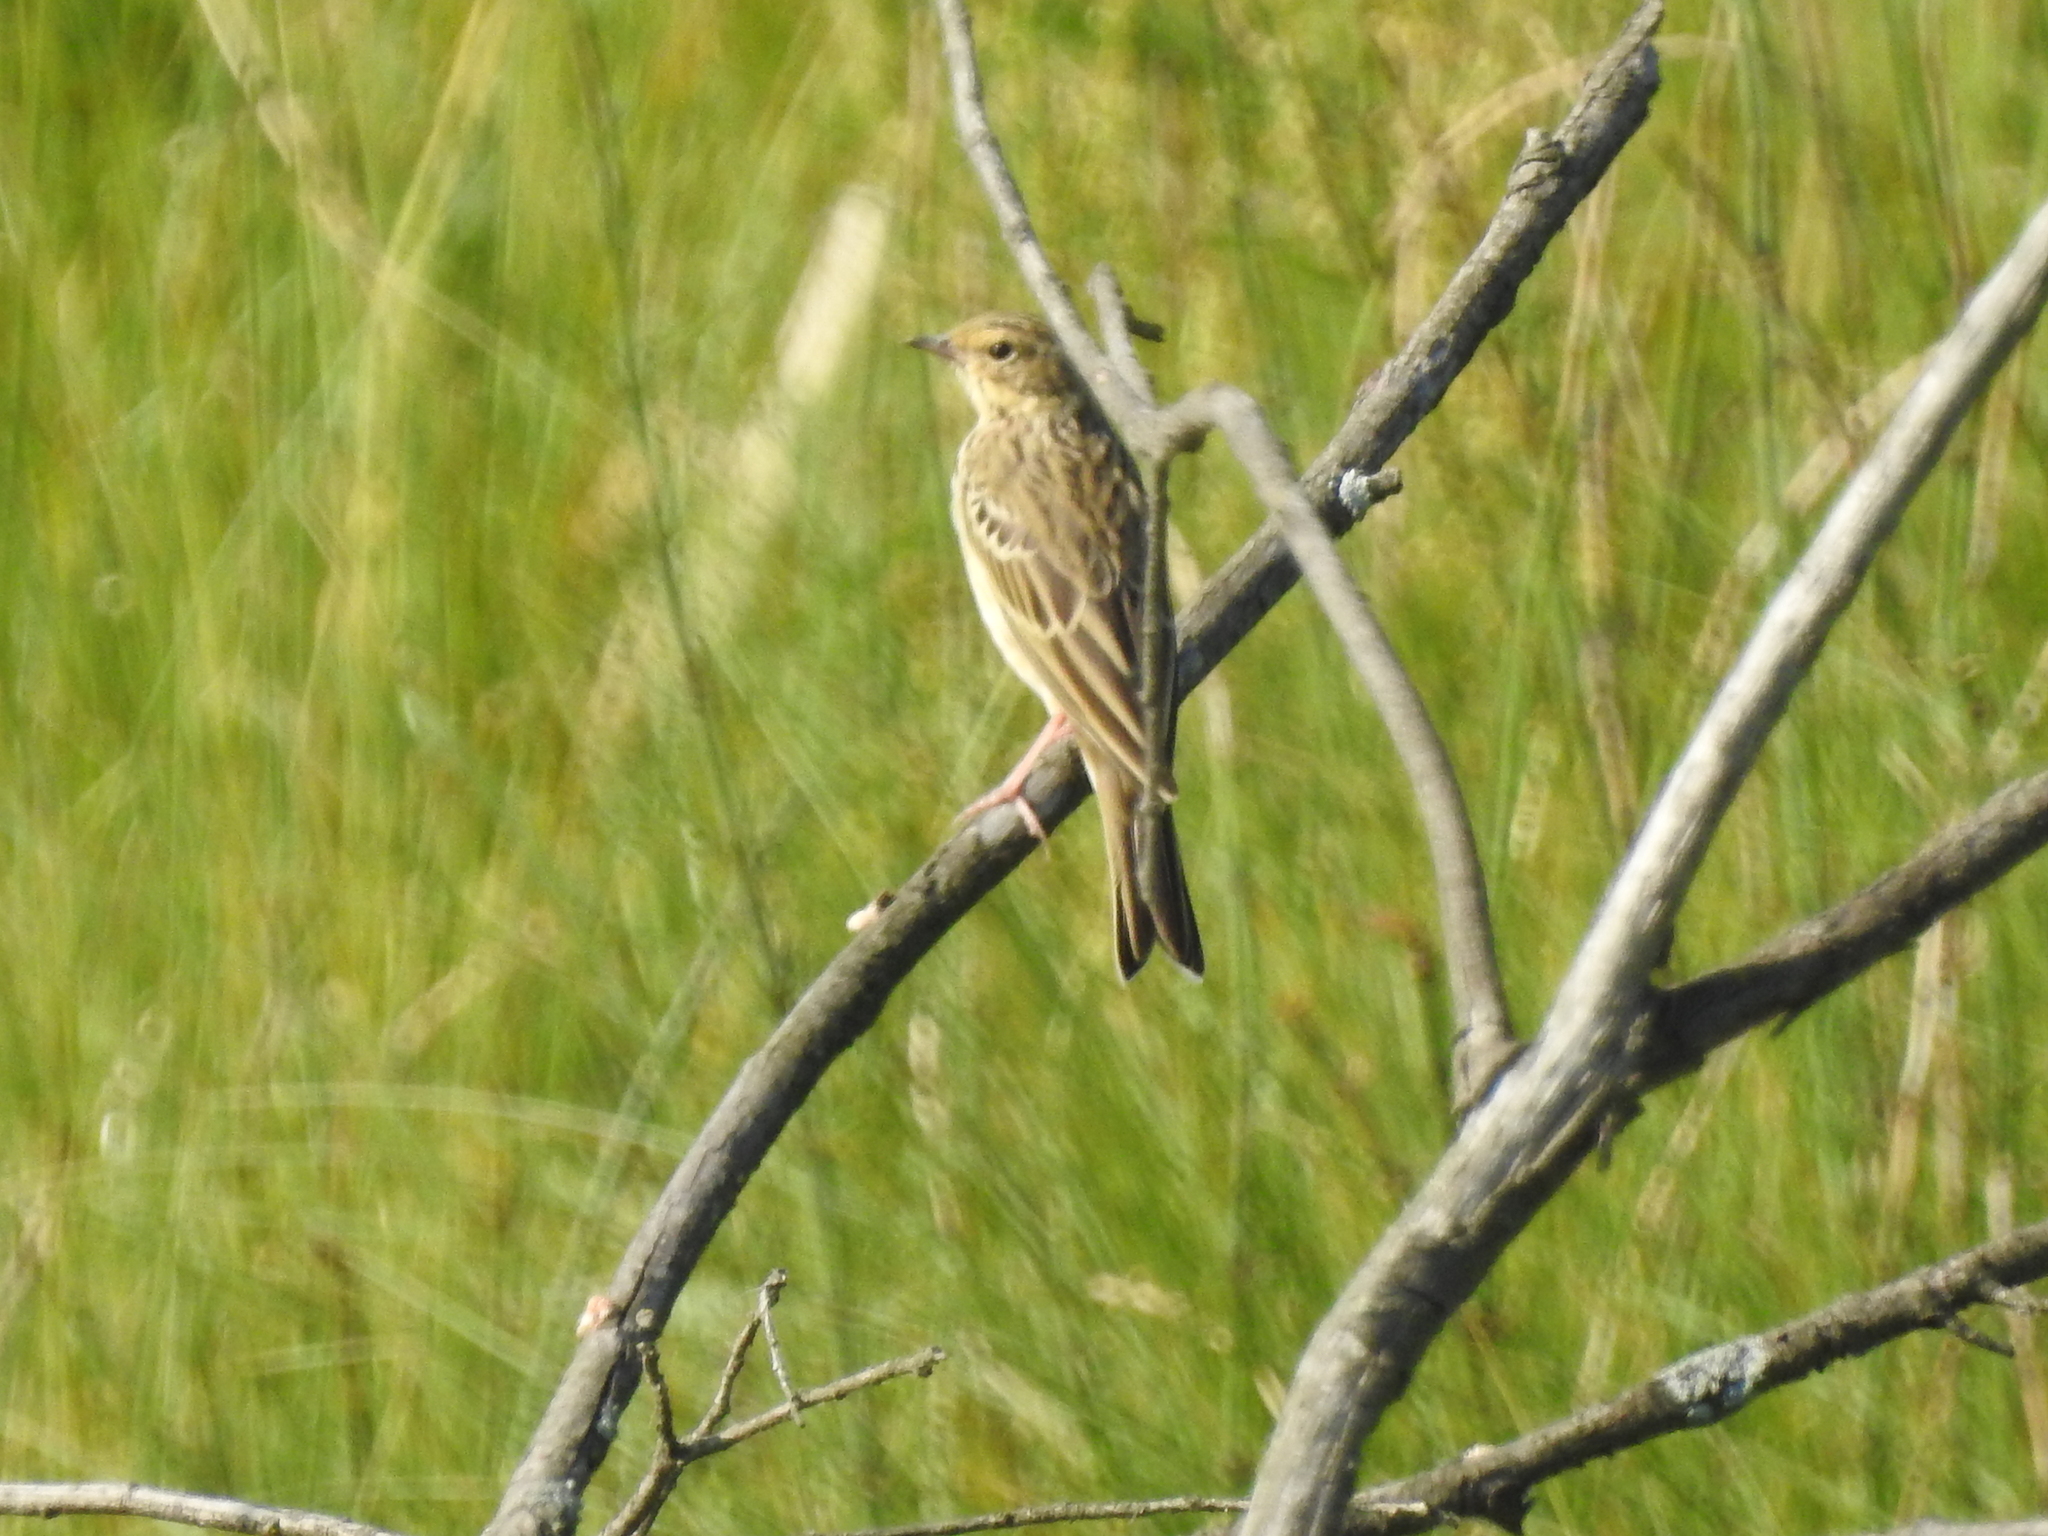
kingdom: Animalia
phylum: Chordata
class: Aves
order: Passeriformes
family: Motacillidae
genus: Anthus
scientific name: Anthus trivialis
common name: Tree pipit
